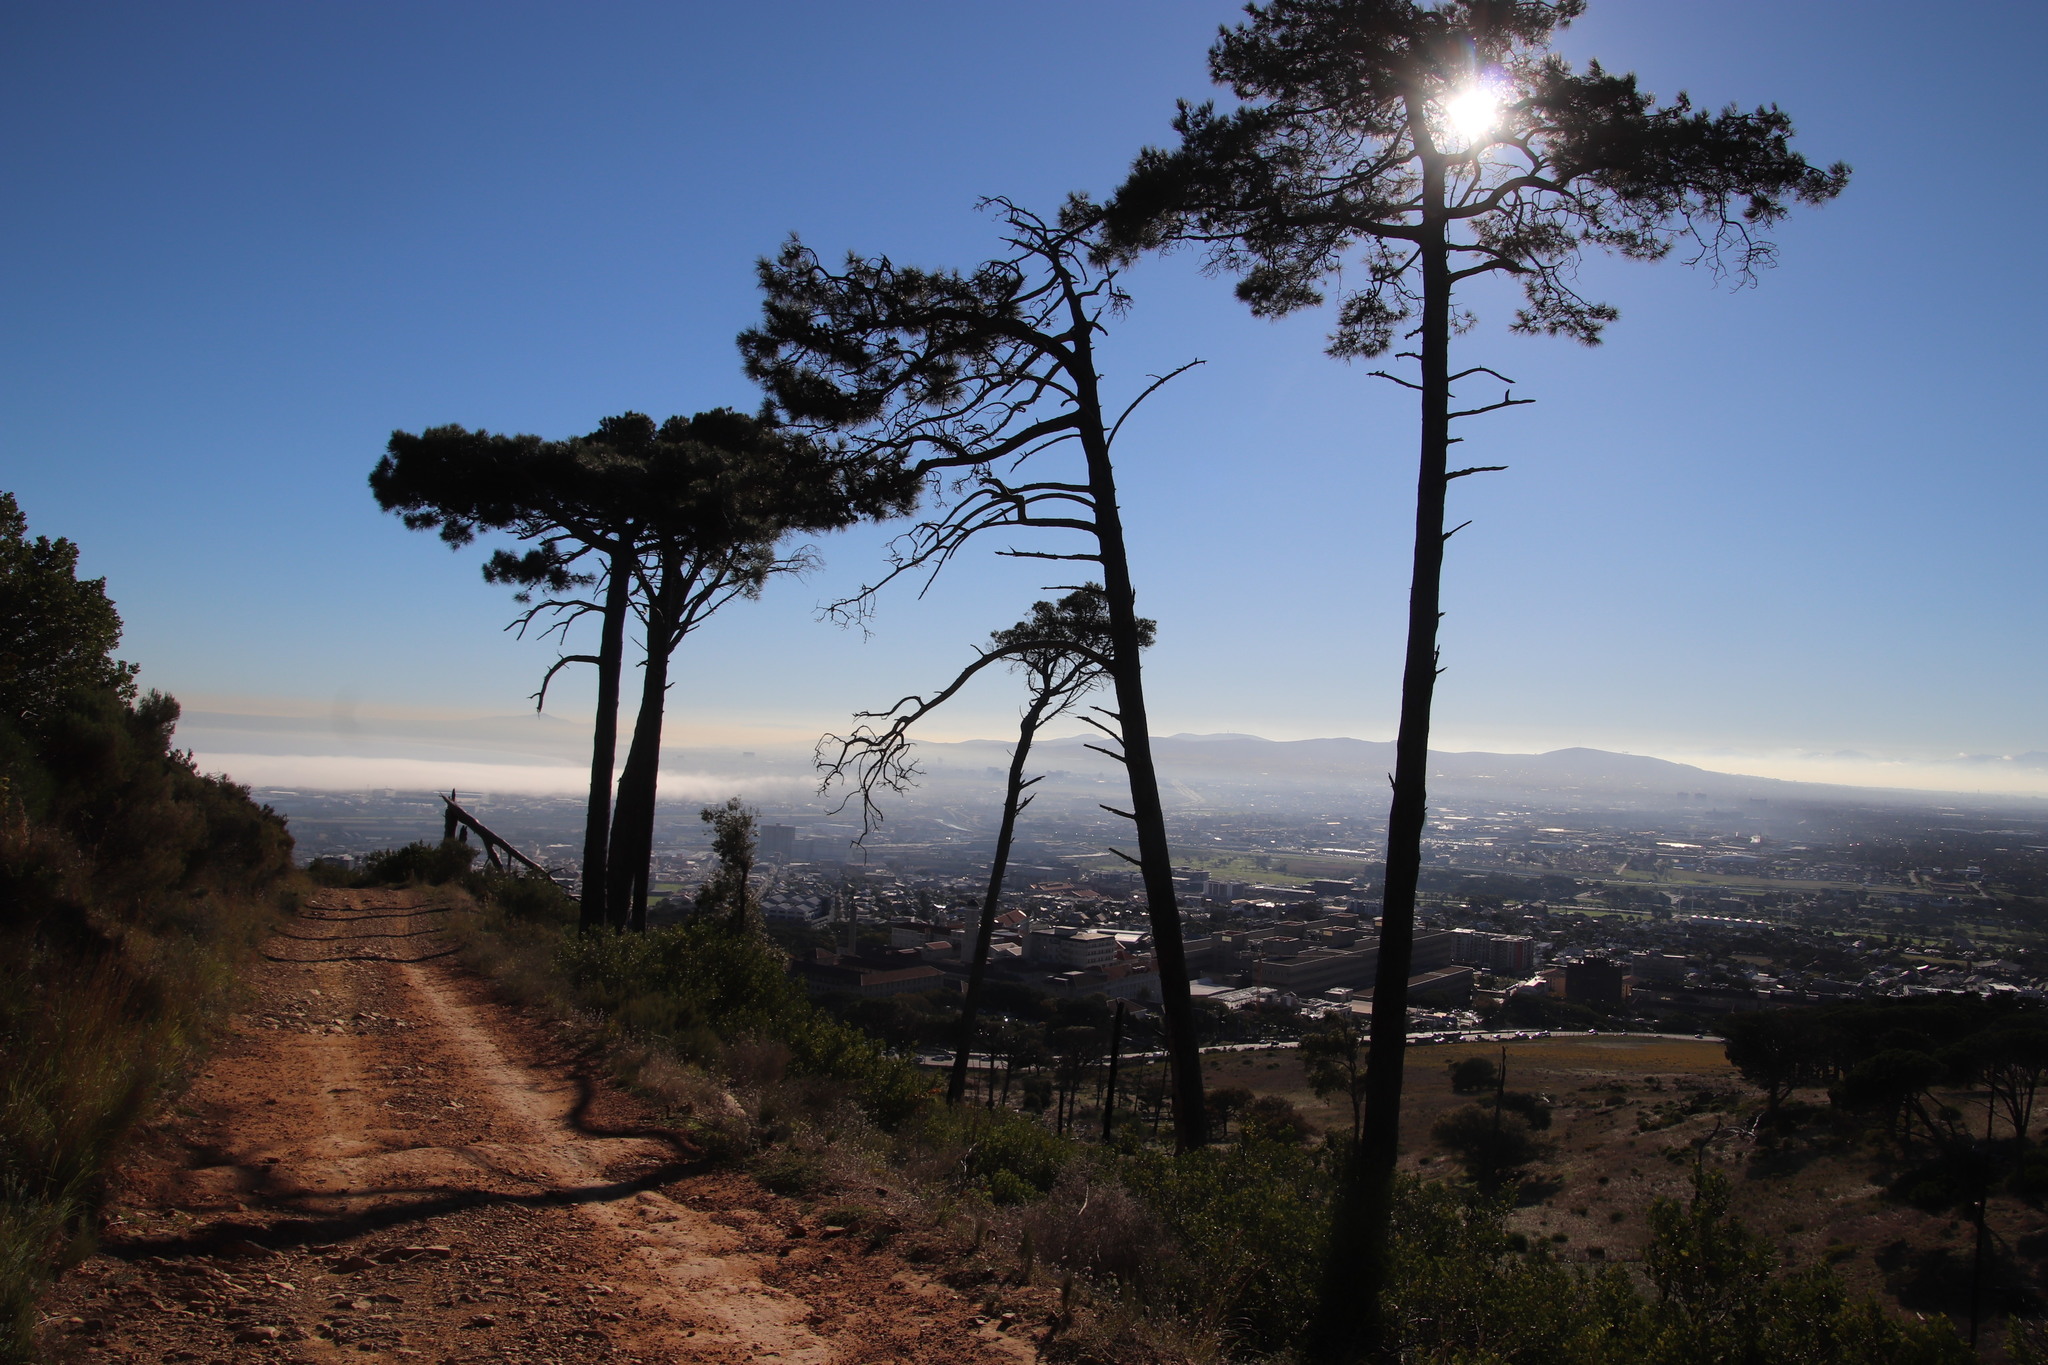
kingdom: Plantae
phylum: Tracheophyta
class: Pinopsida
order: Pinales
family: Pinaceae
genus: Pinus
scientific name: Pinus pinaster
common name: Maritime pine
